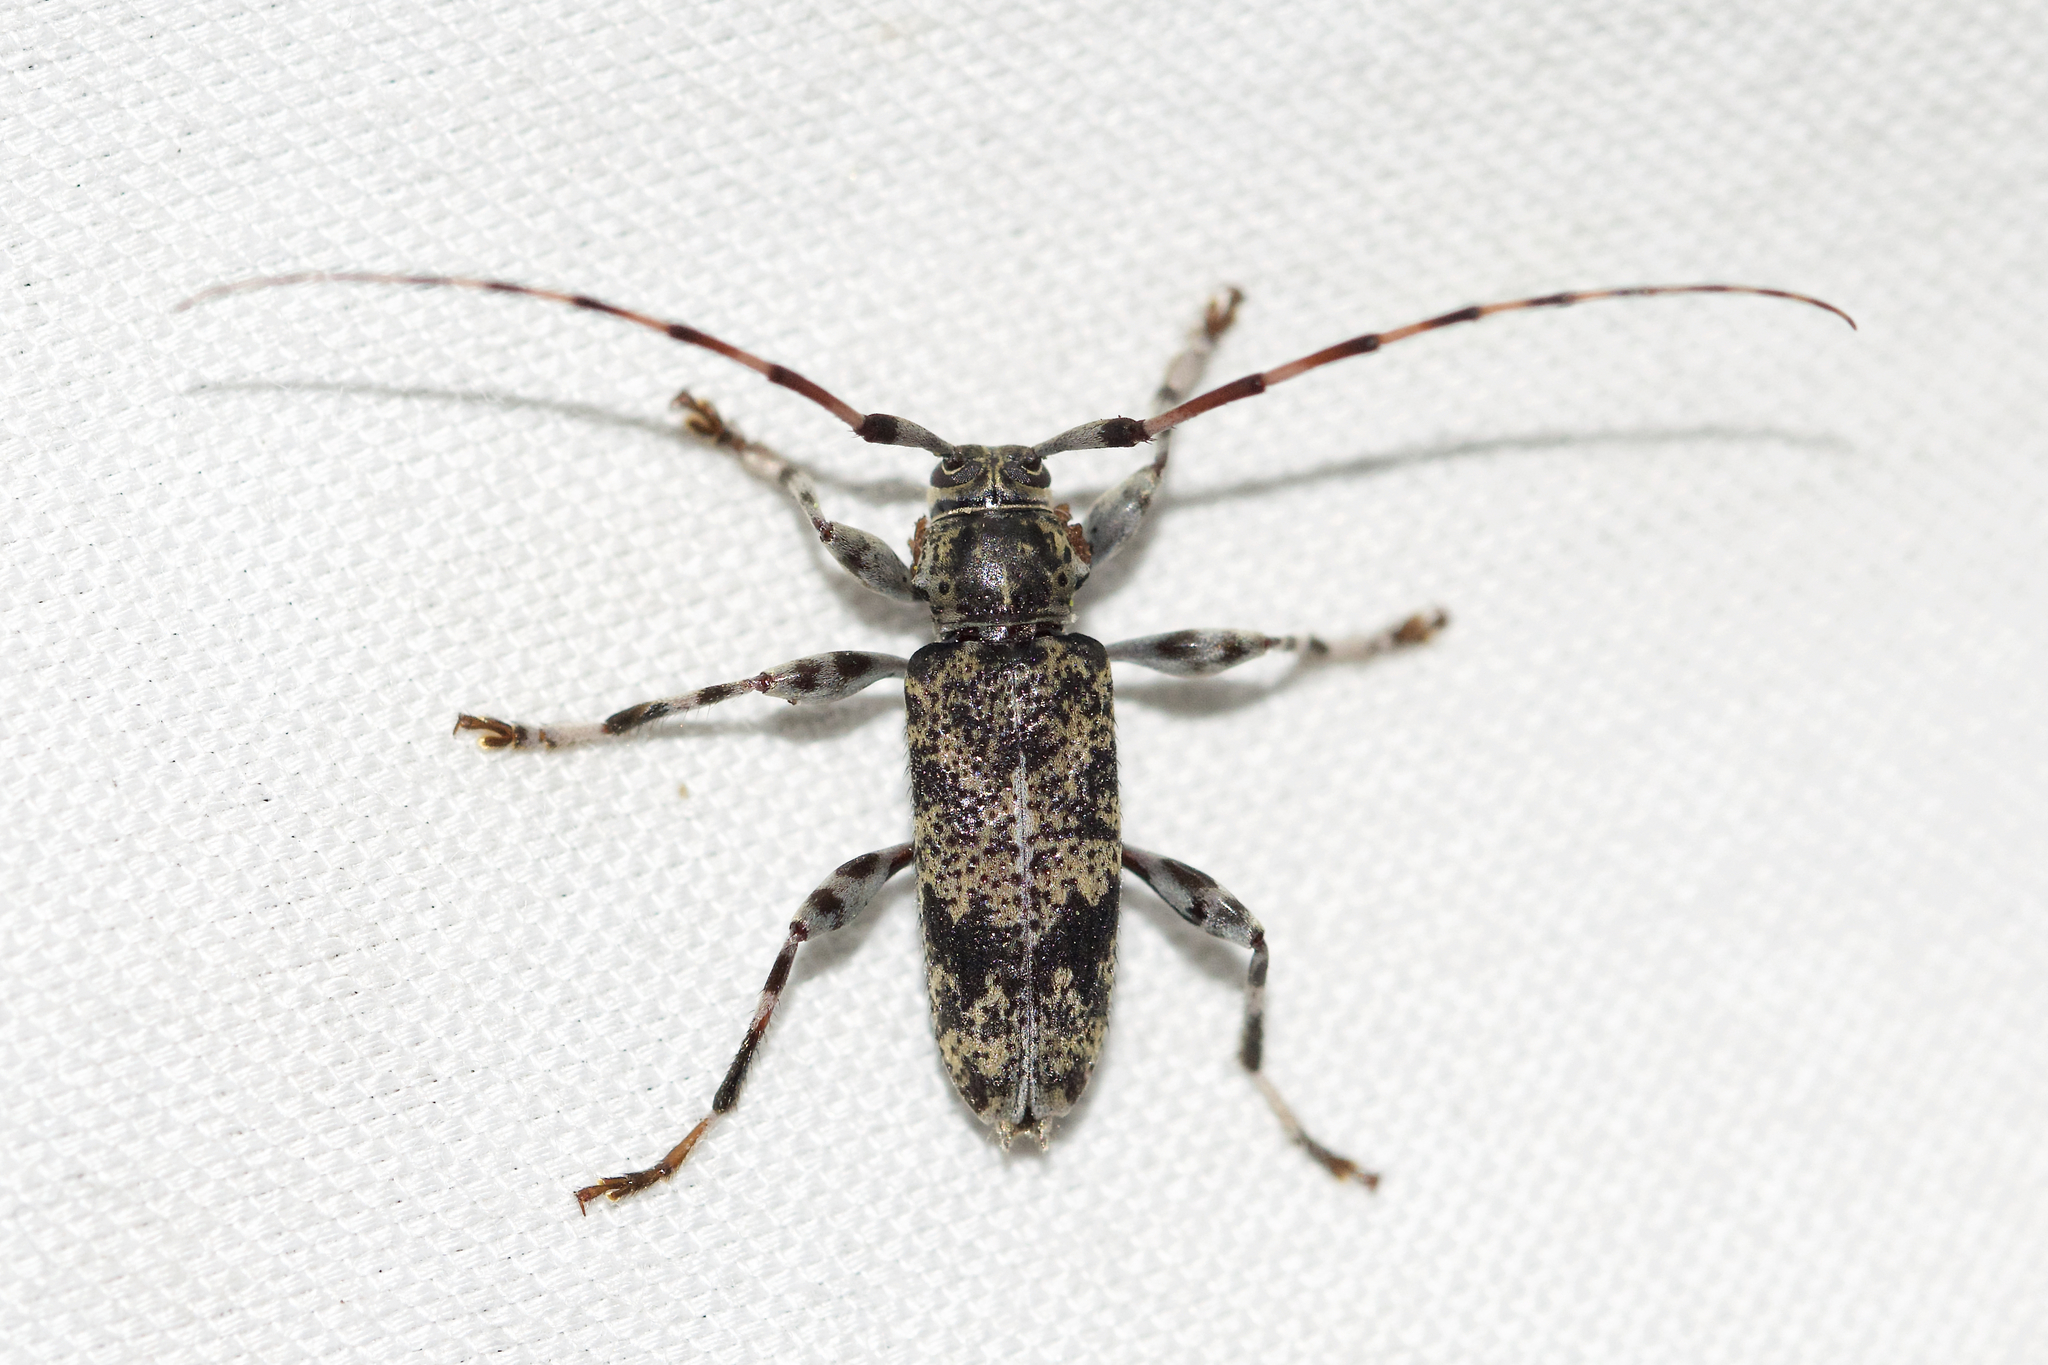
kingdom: Animalia
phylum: Arthropoda
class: Insecta
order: Coleoptera
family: Cerambycidae
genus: Graphisurus
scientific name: Graphisurus fasciatus
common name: Banded graphisurus
